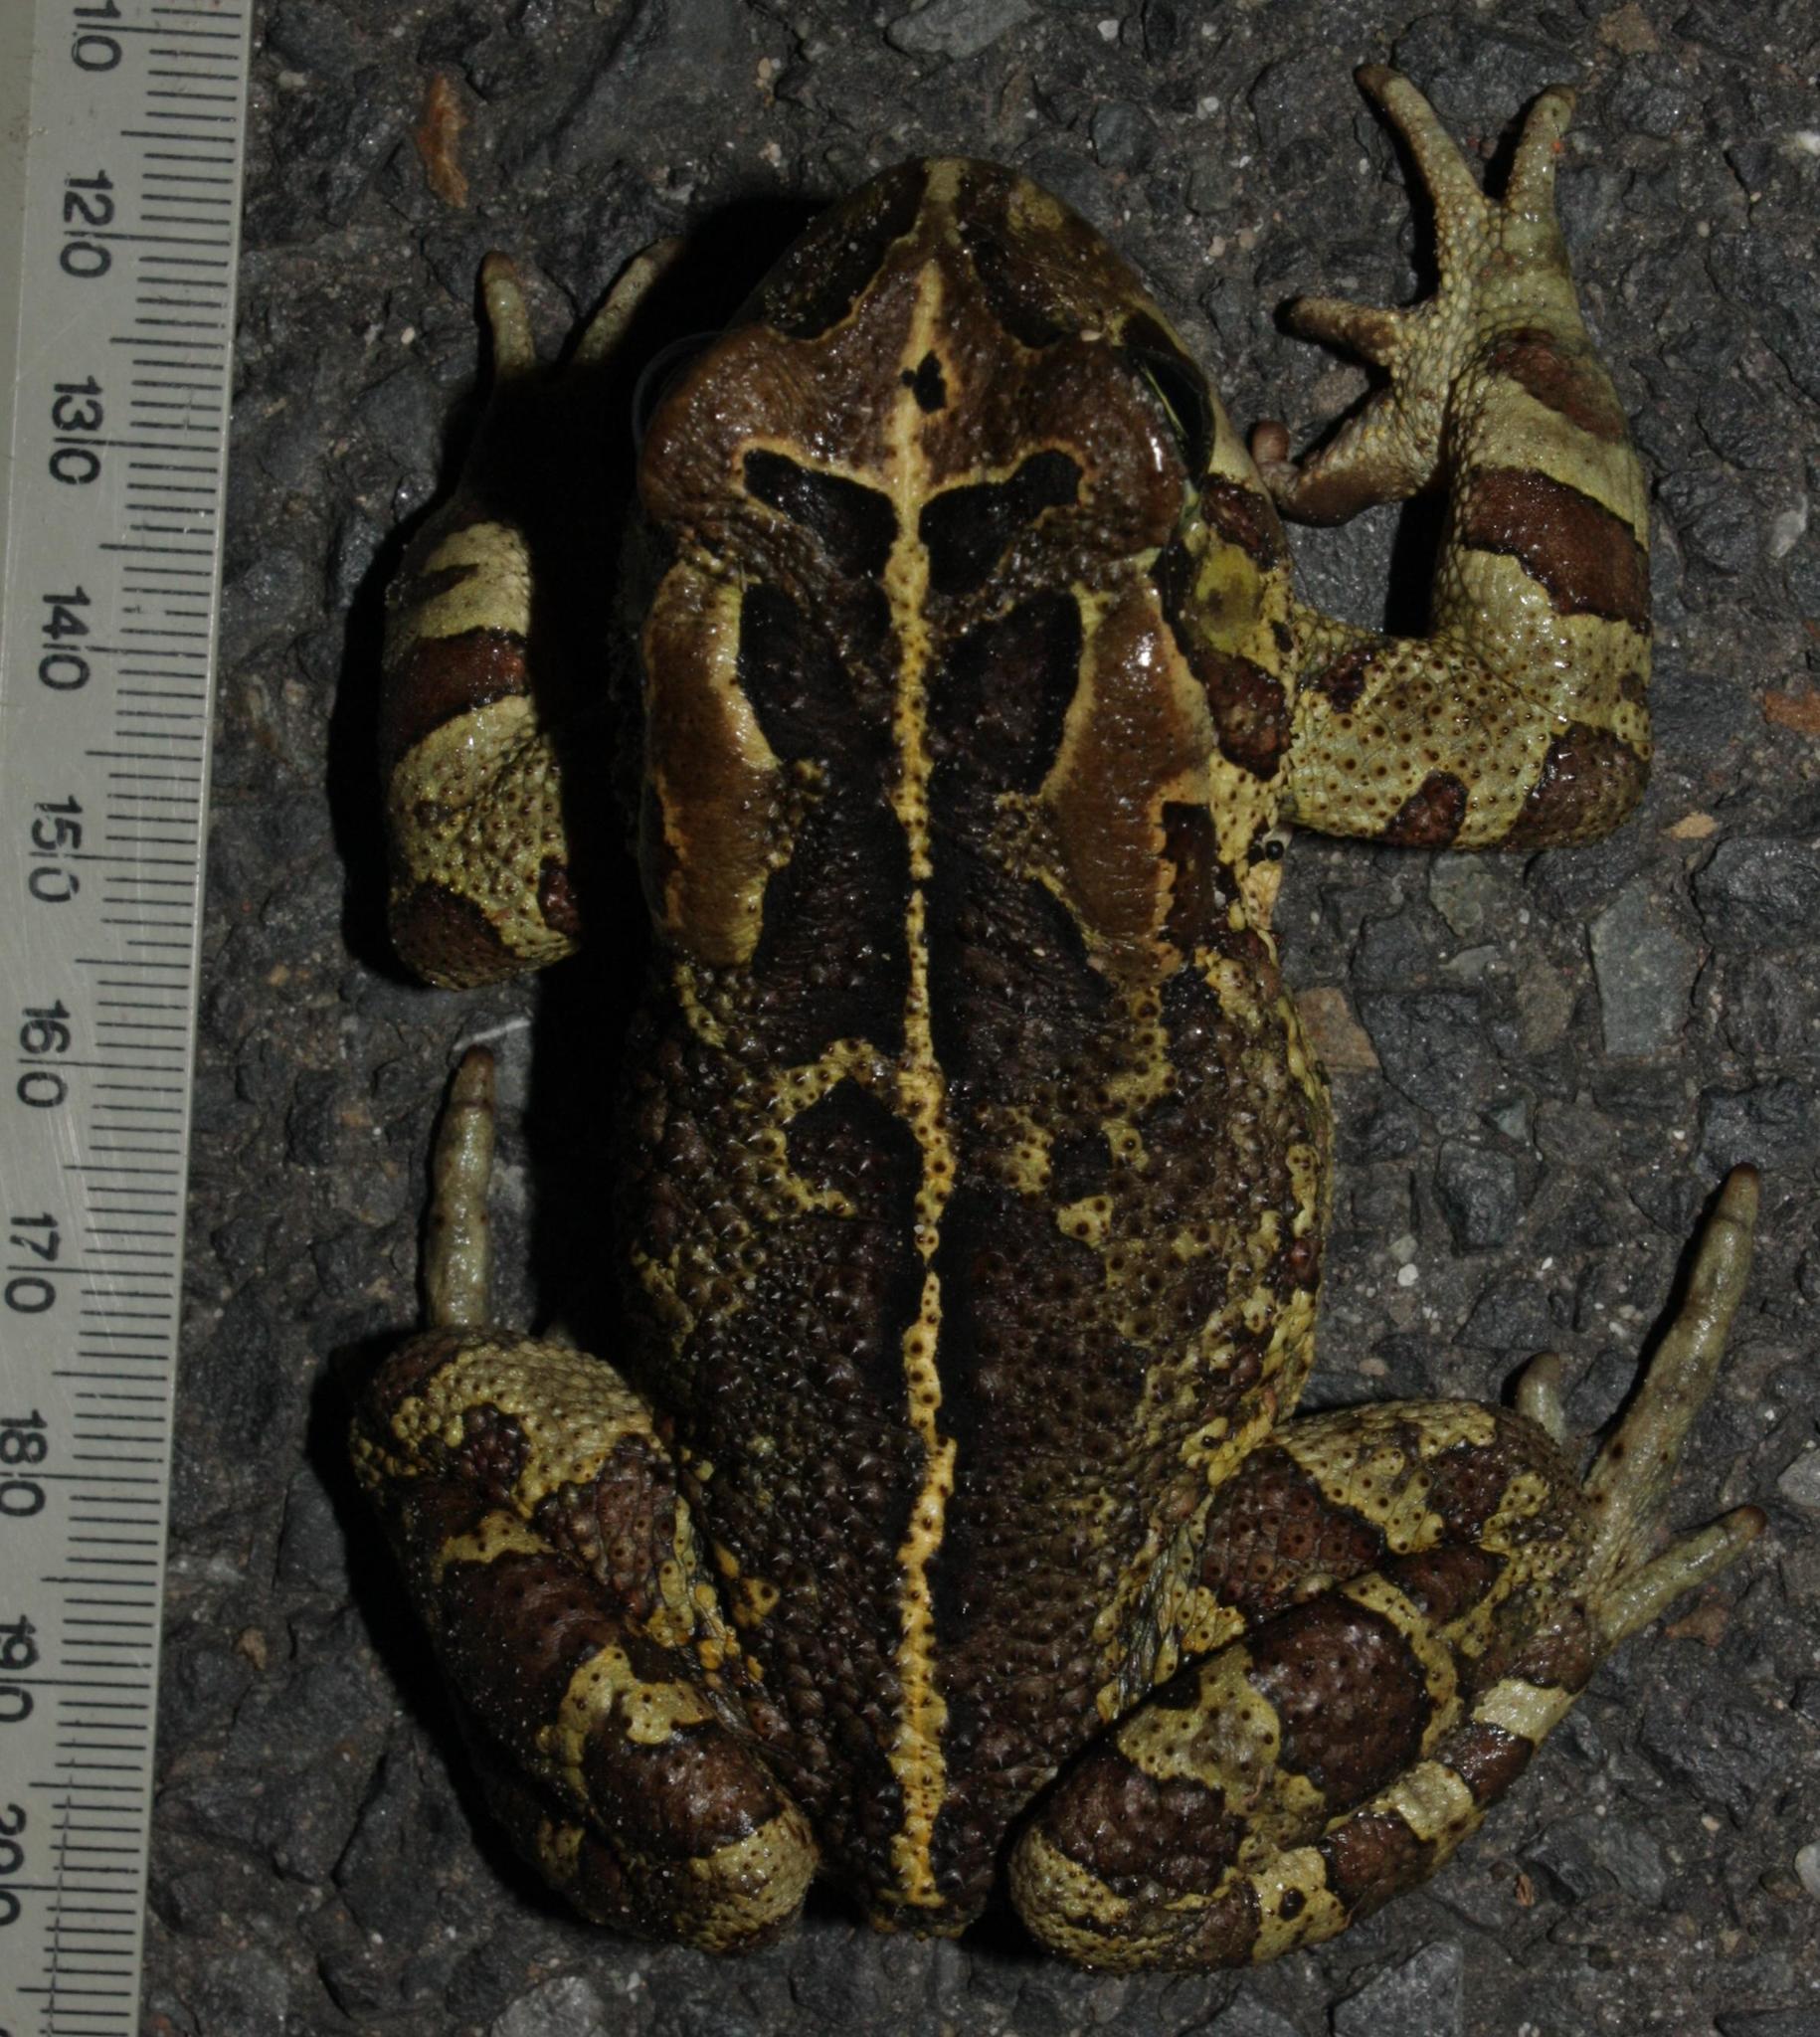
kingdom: Animalia
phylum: Chordata
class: Amphibia
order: Anura
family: Bufonidae
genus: Sclerophrys
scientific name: Sclerophrys pantherina
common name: Panther toad
